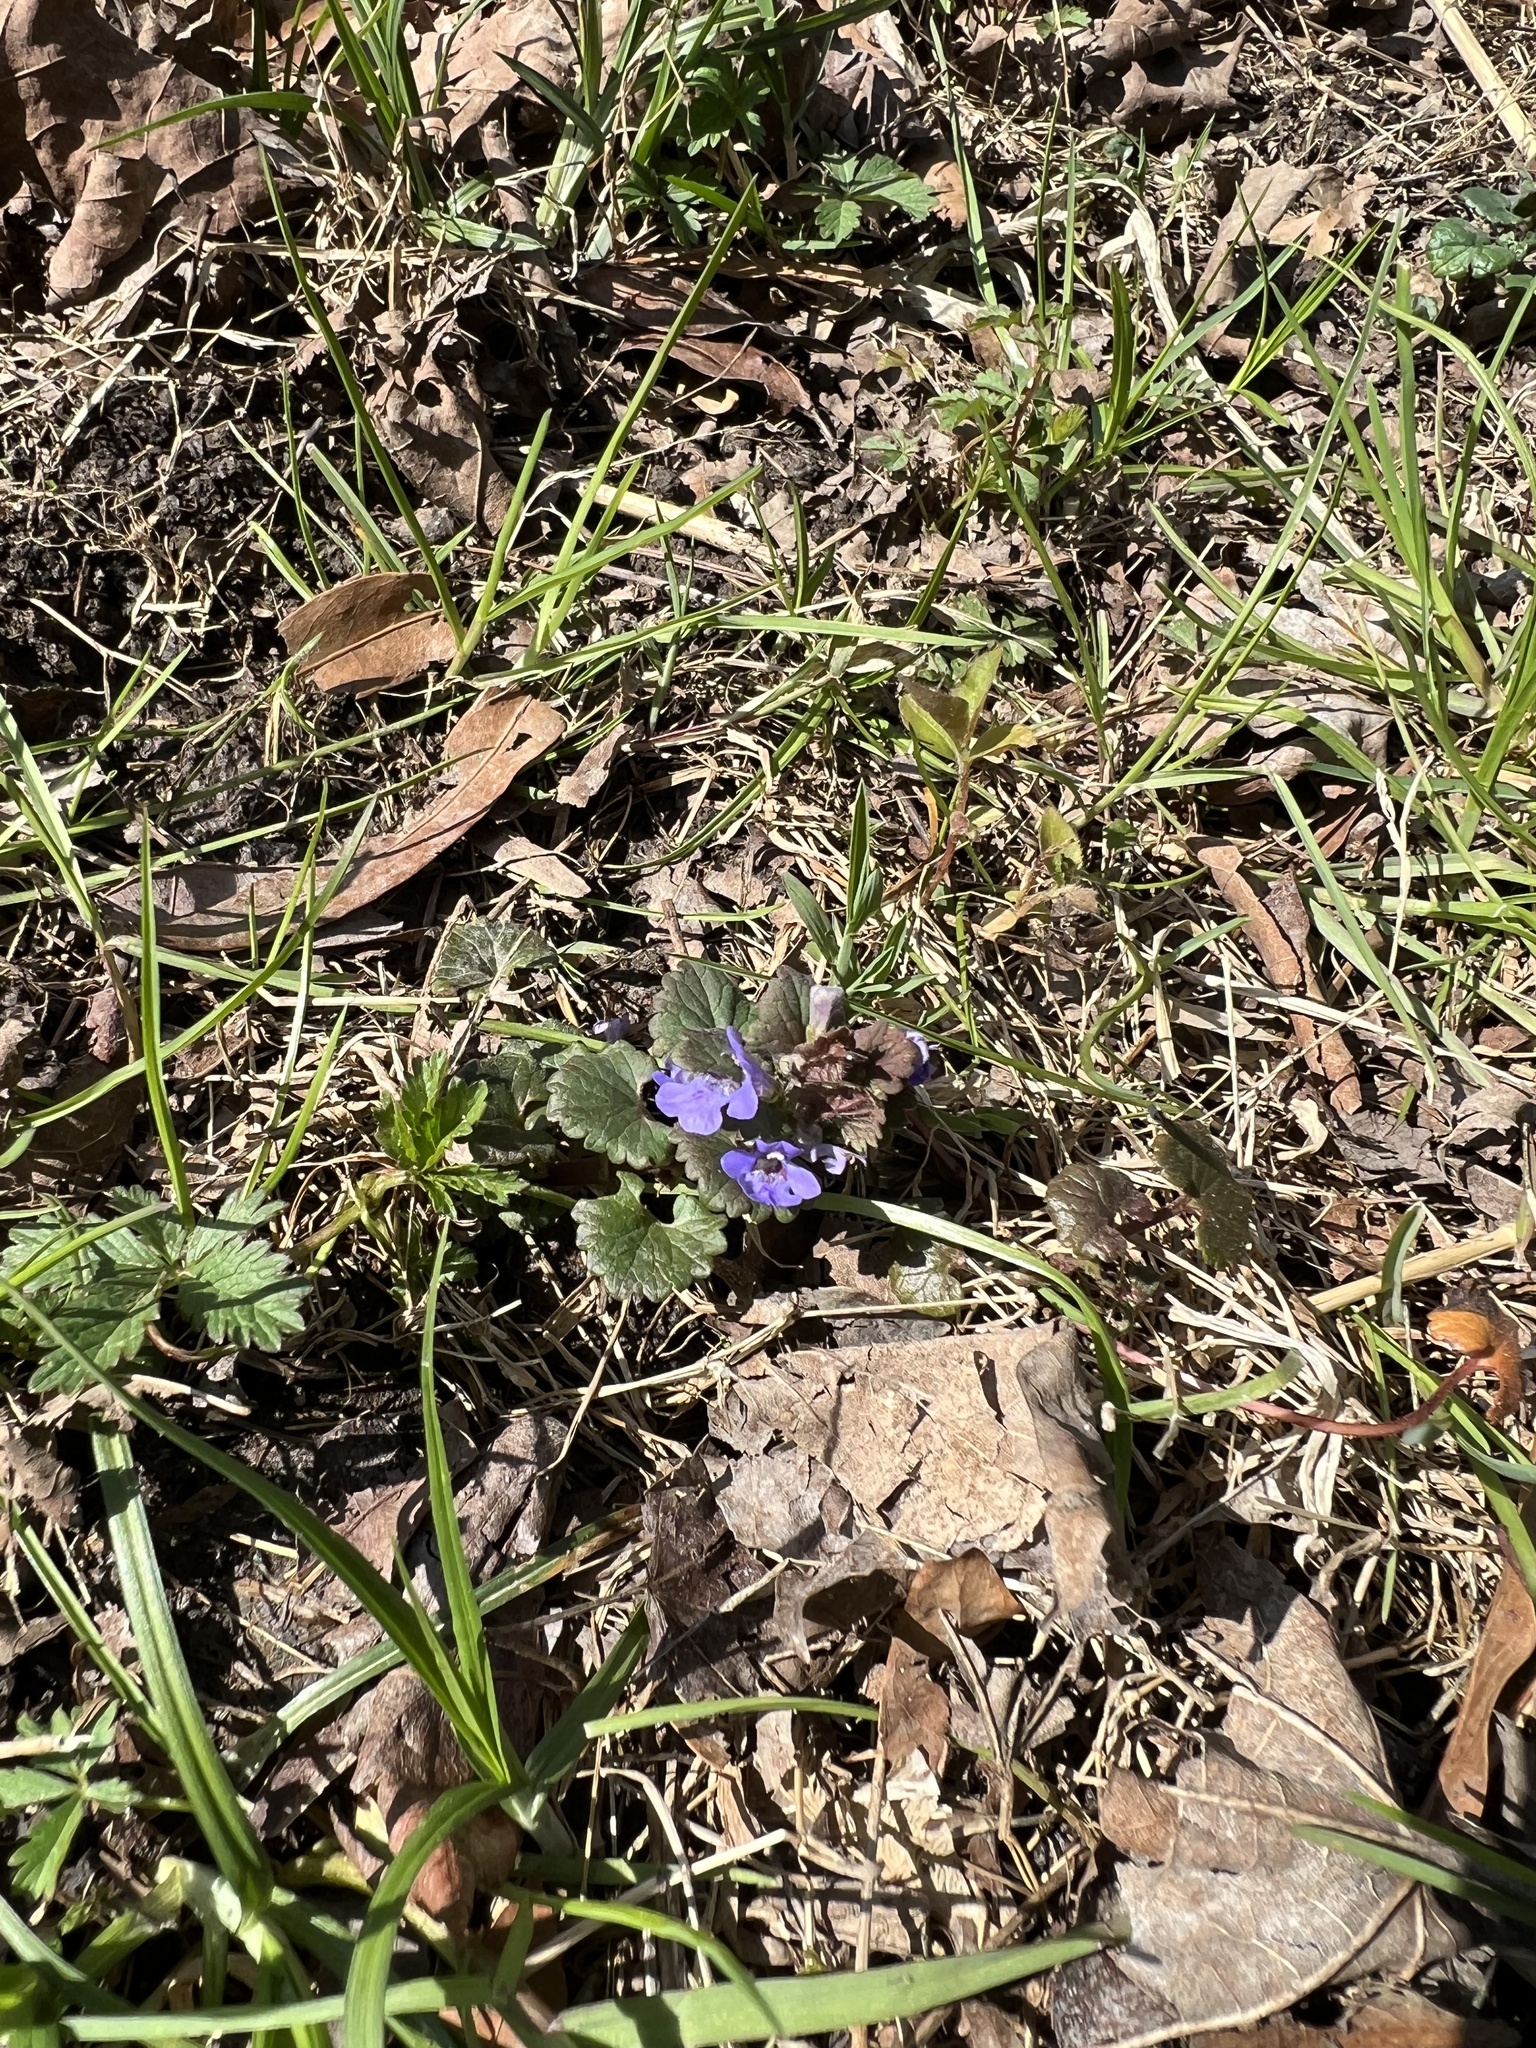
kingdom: Plantae
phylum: Tracheophyta
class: Magnoliopsida
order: Lamiales
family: Lamiaceae
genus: Glechoma
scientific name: Glechoma hederacea
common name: Ground ivy
